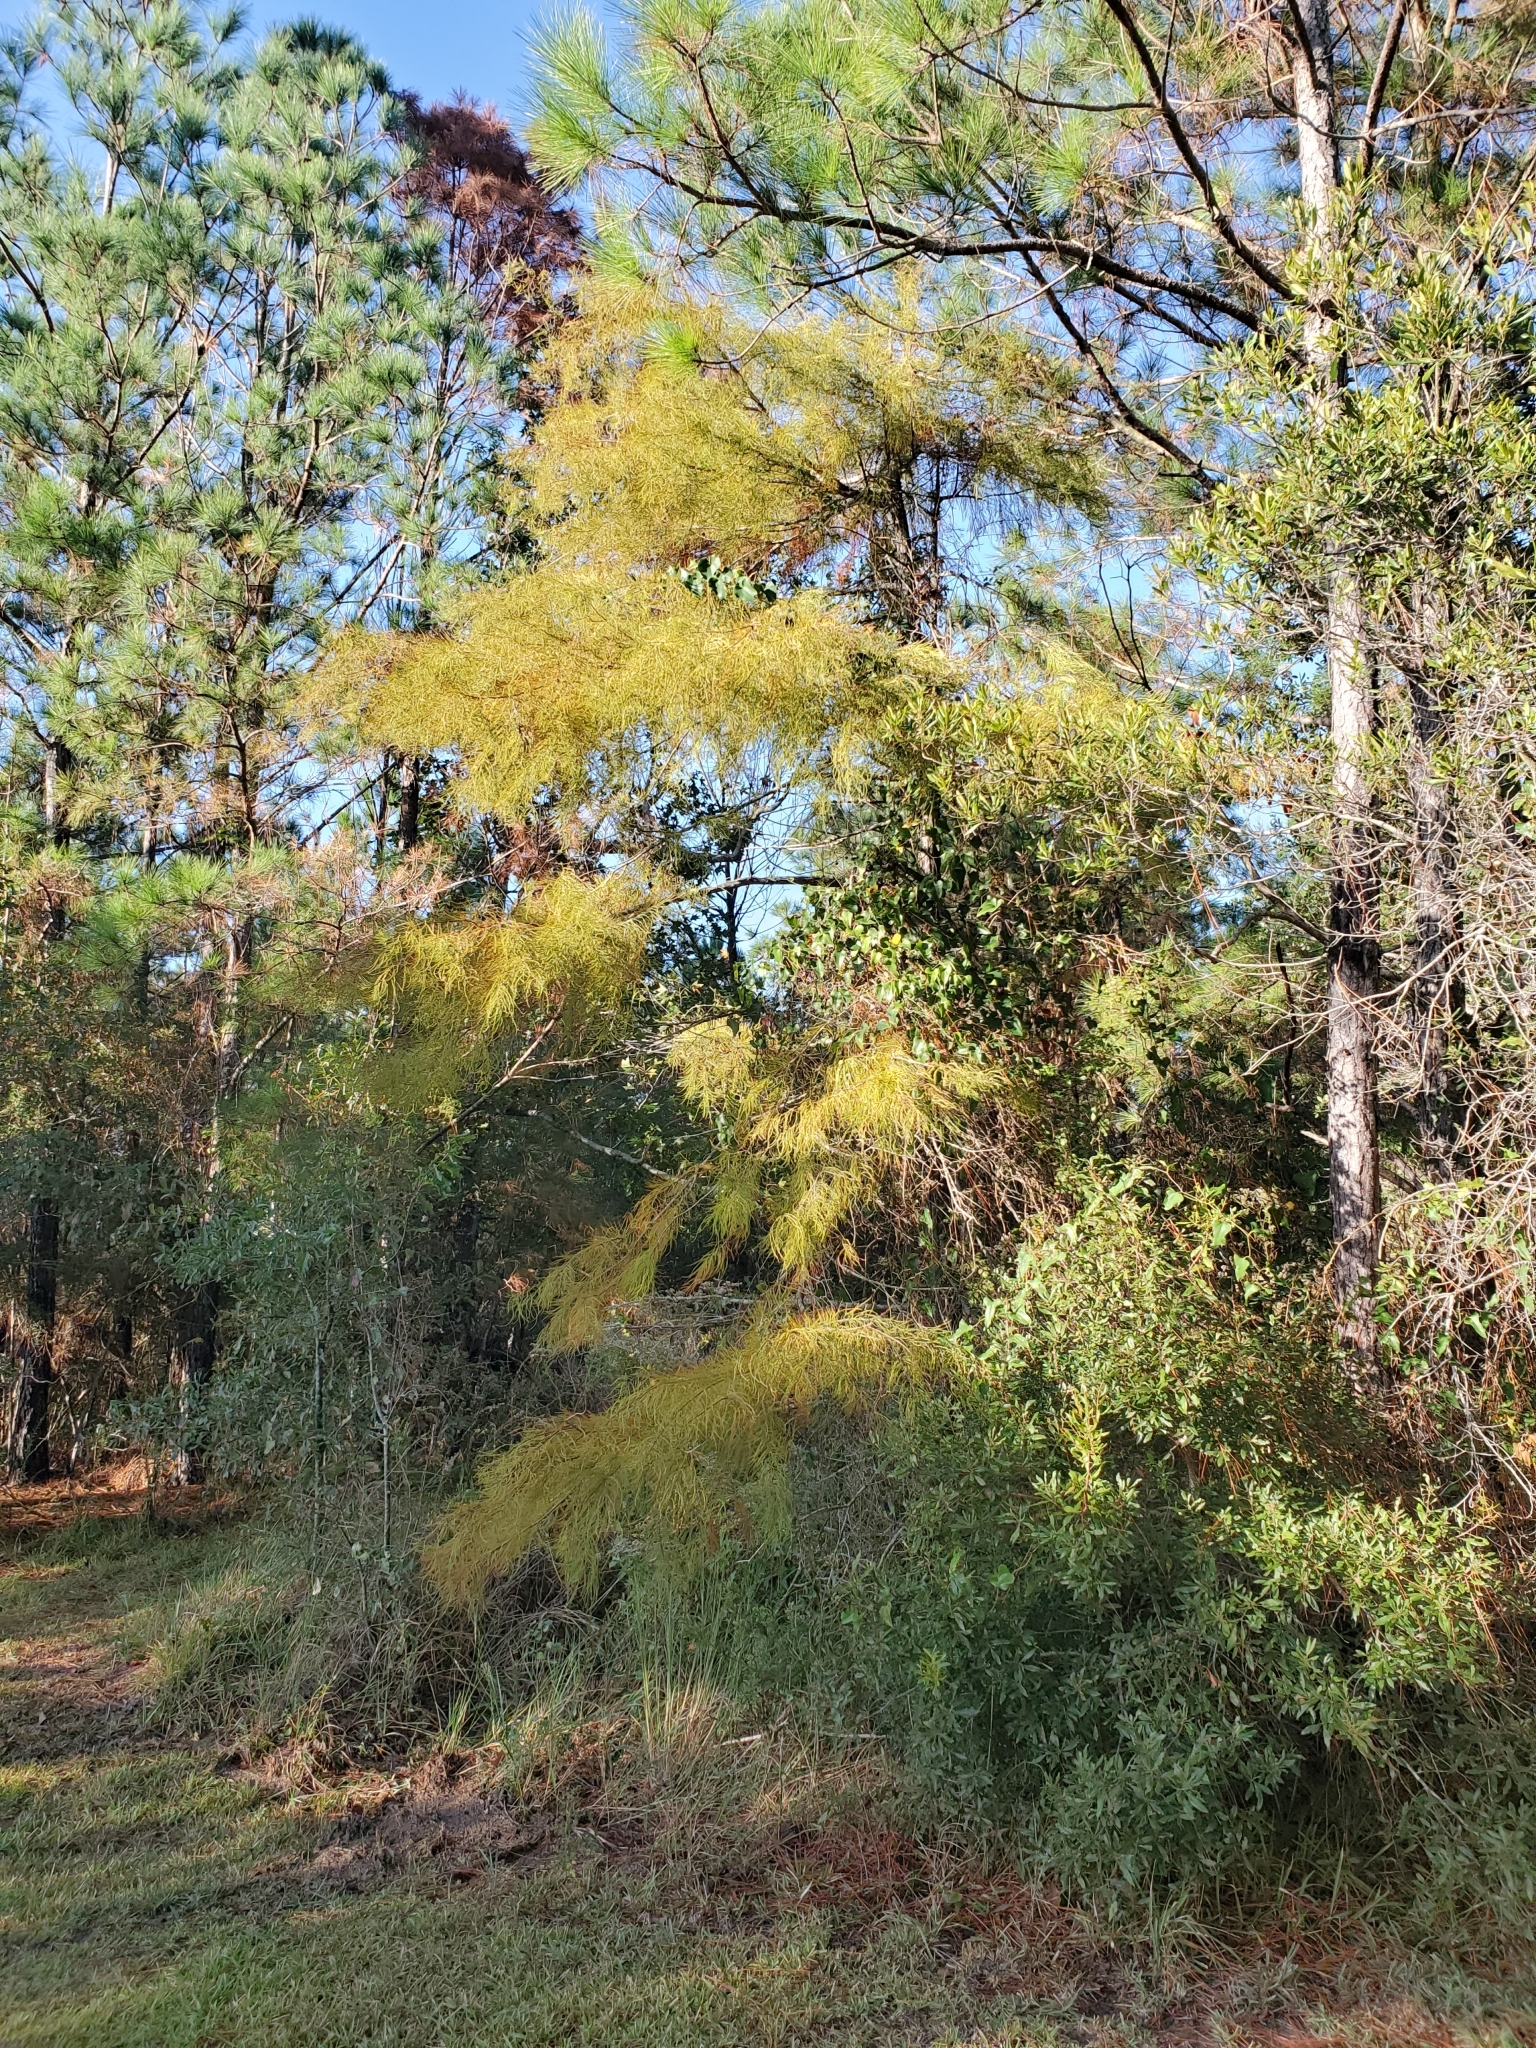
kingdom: Plantae
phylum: Tracheophyta
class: Pinopsida
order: Pinales
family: Cupressaceae
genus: Taxodium
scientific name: Taxodium distichum
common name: Bald cypress
